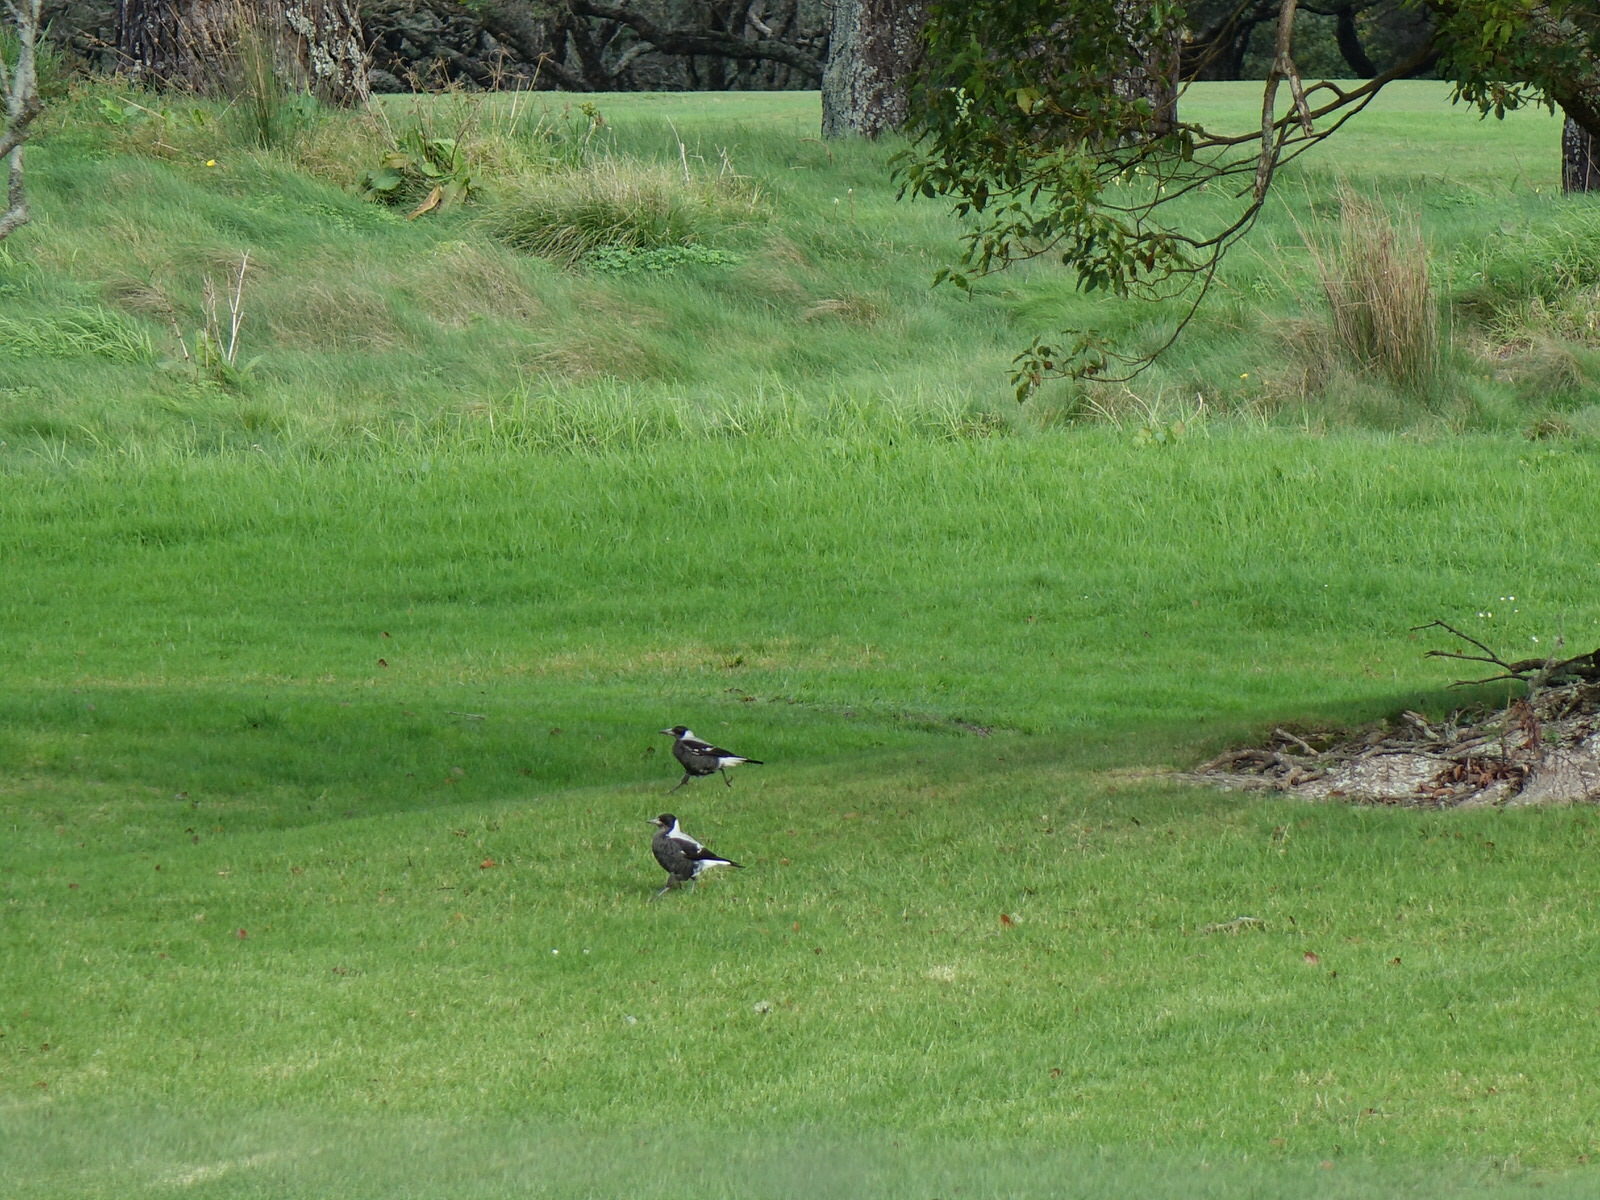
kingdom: Animalia
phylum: Chordata
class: Aves
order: Passeriformes
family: Cracticidae
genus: Gymnorhina
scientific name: Gymnorhina tibicen
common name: Australian magpie
